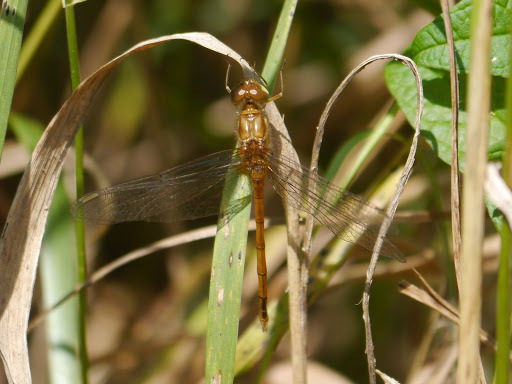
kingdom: Animalia
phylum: Arthropoda
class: Insecta
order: Odonata
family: Libellulidae
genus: Sympetrum
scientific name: Sympetrum vicinum
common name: Autumn meadowhawk
